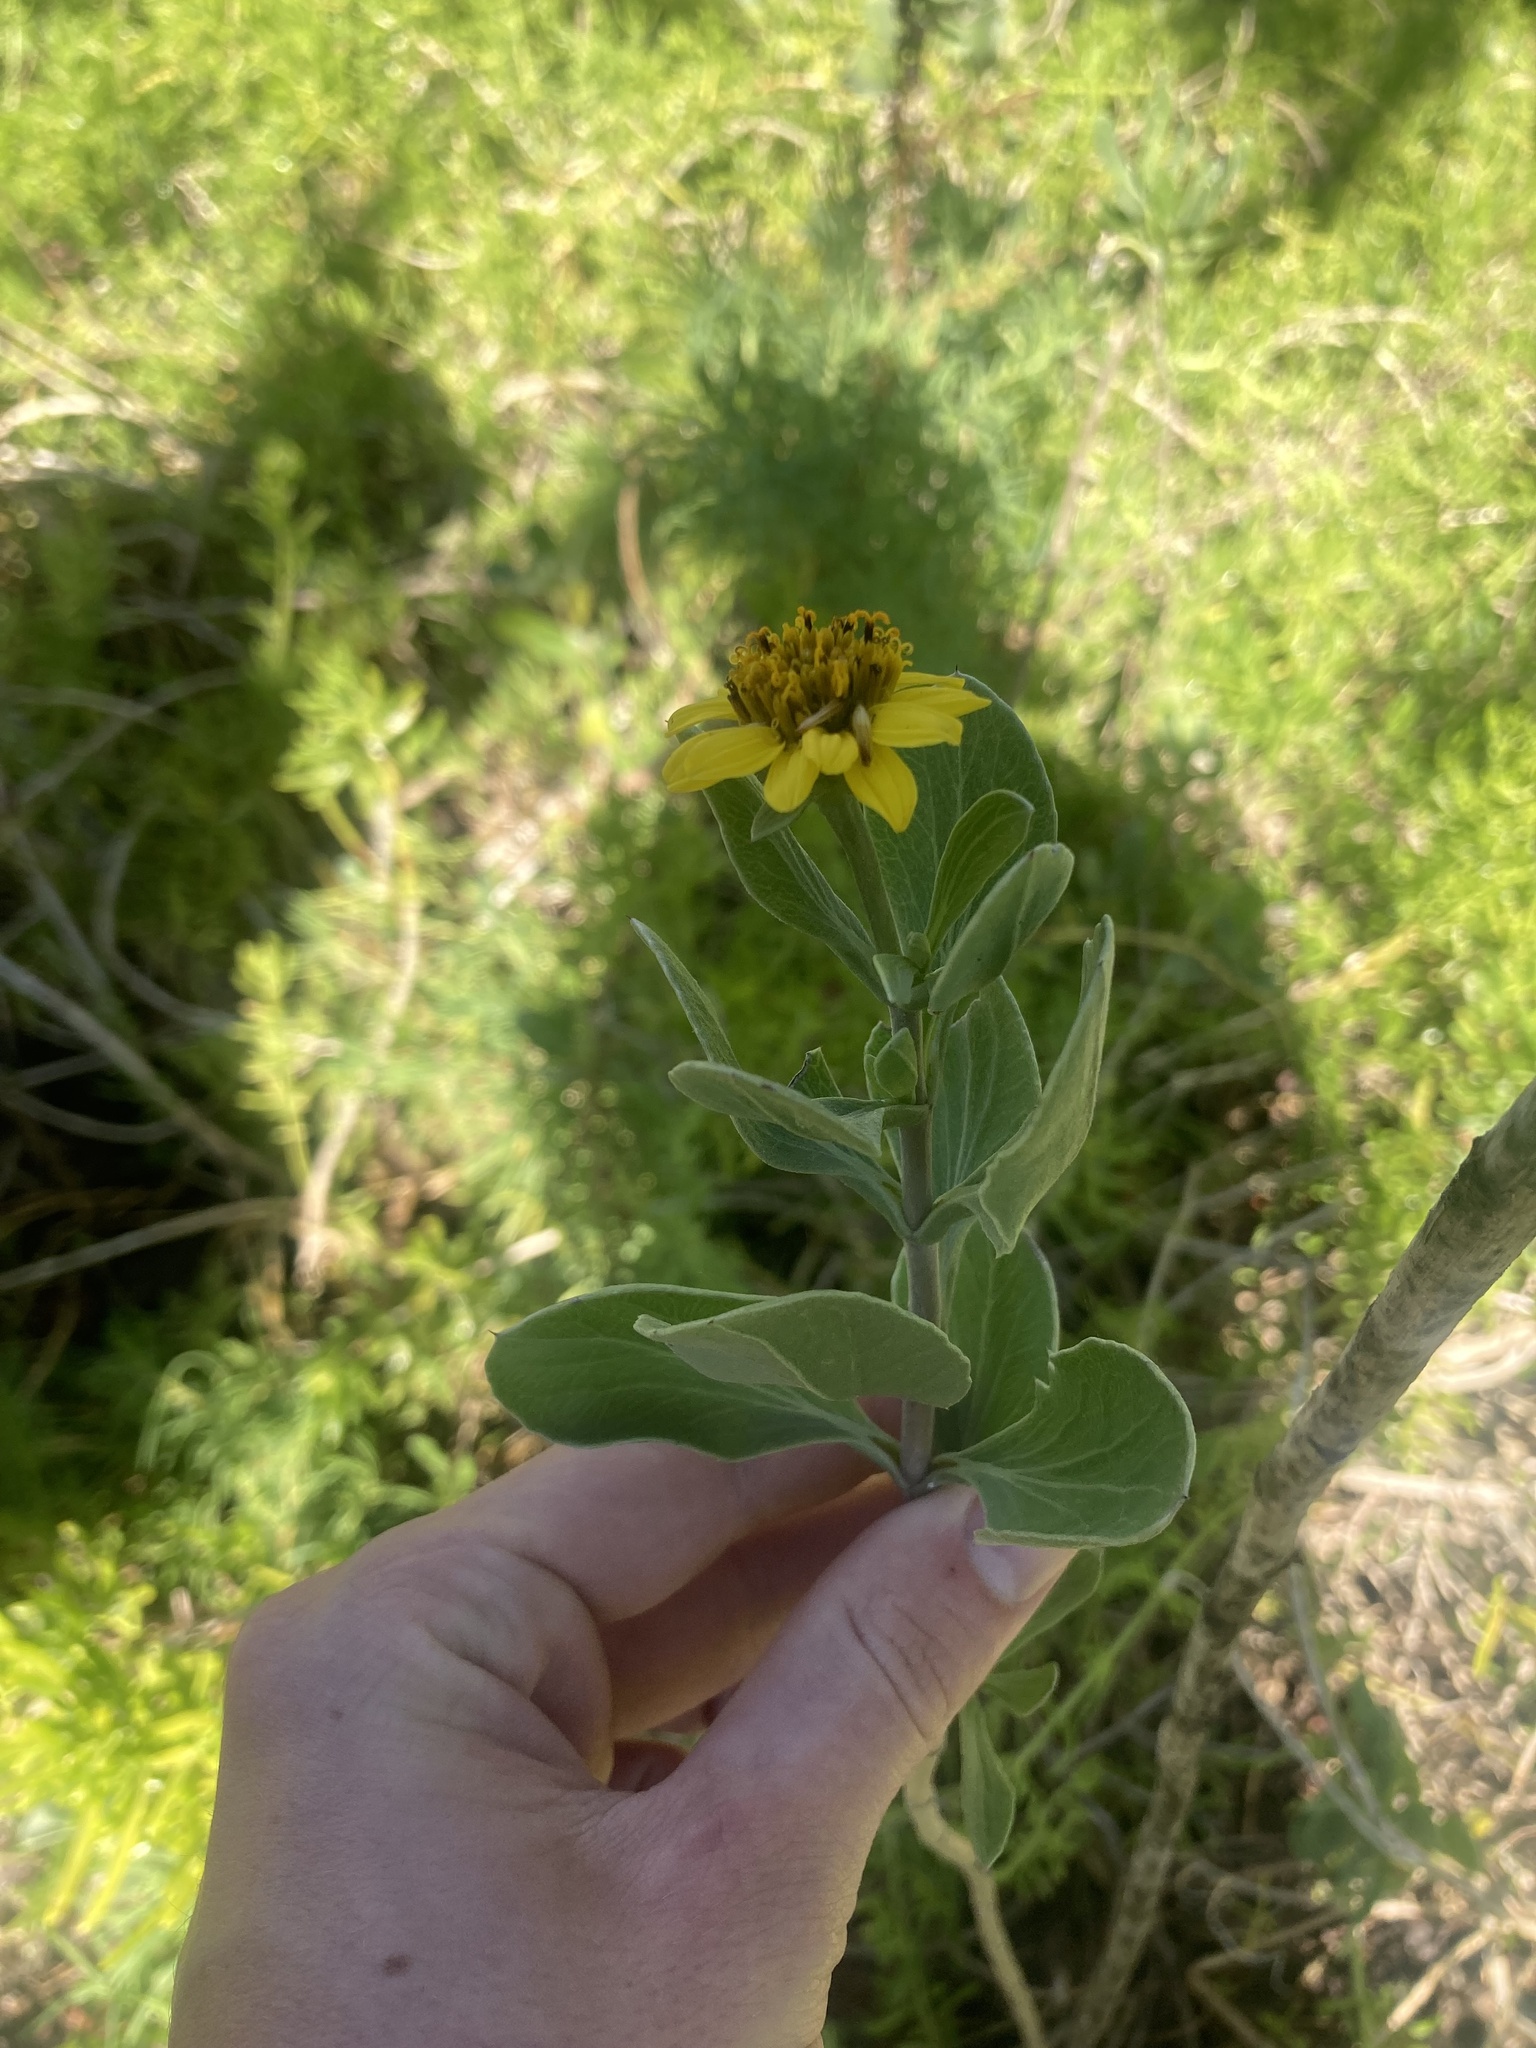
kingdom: Plantae
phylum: Tracheophyta
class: Magnoliopsida
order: Asterales
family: Asteraceae
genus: Borrichia
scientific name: Borrichia frutescens
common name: Sea oxeye
